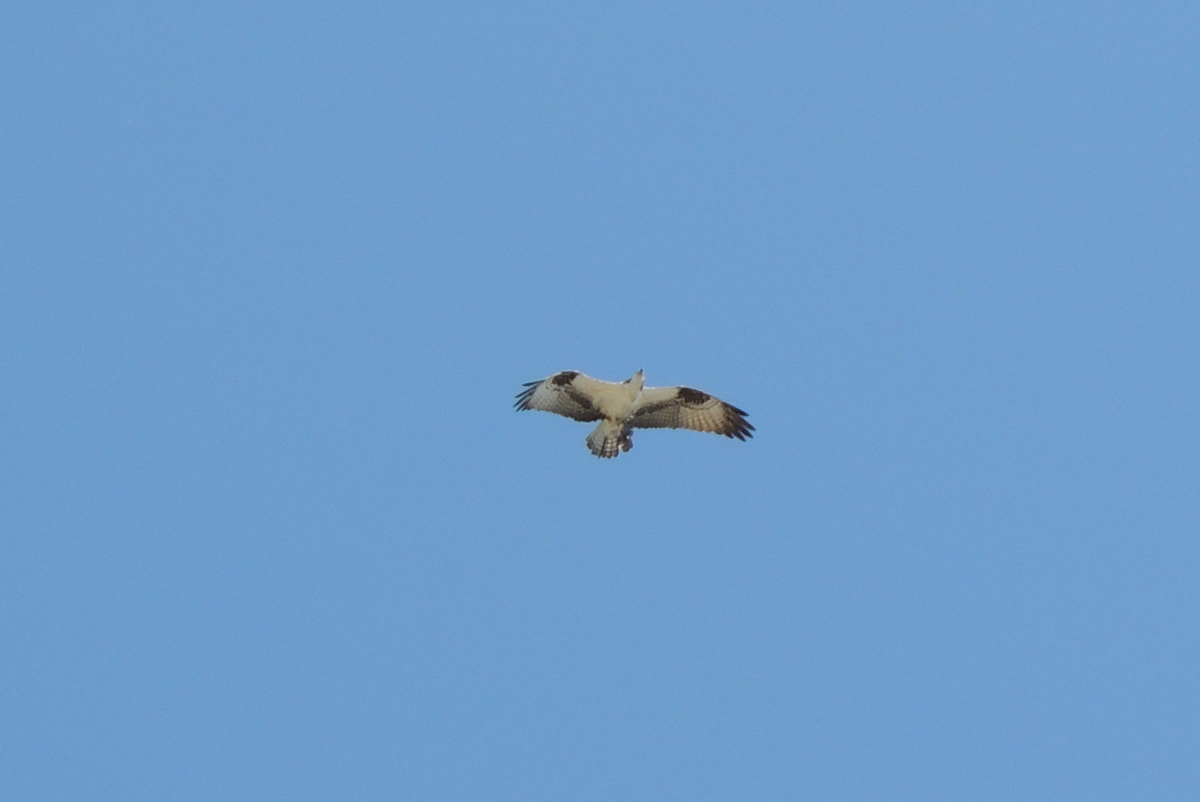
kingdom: Animalia
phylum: Chordata
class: Aves
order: Accipitriformes
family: Pandionidae
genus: Pandion
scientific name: Pandion haliaetus
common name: Osprey
